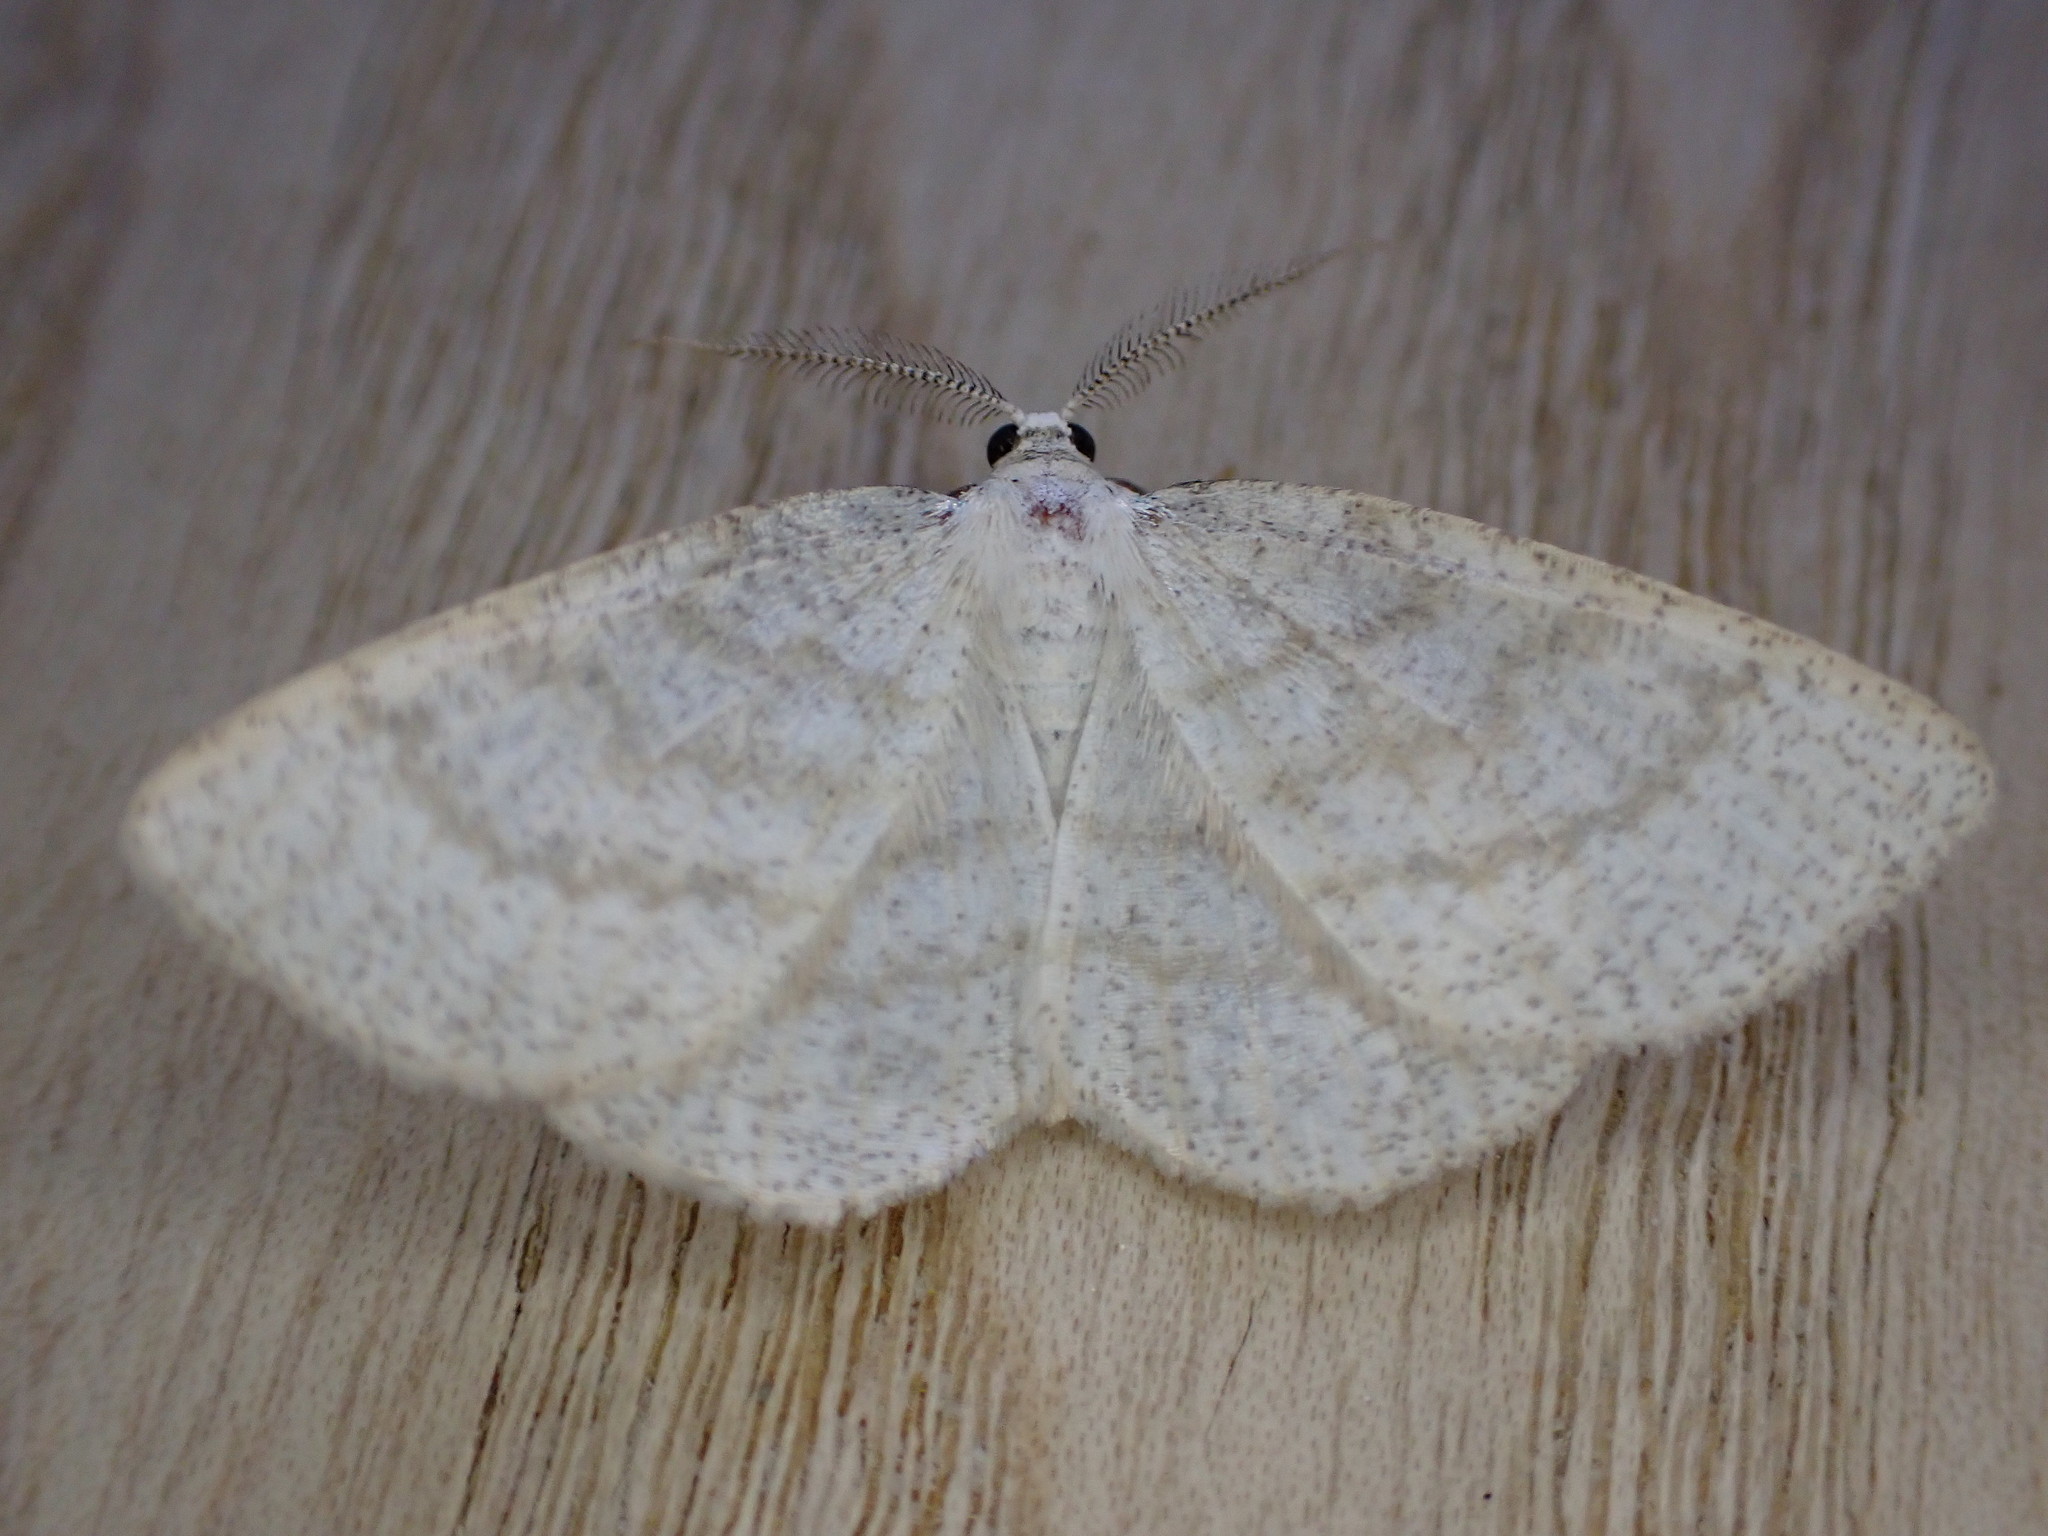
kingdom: Animalia
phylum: Arthropoda
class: Insecta
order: Lepidoptera
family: Geometridae
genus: Cabera
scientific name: Cabera exanthemata
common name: Common wave
